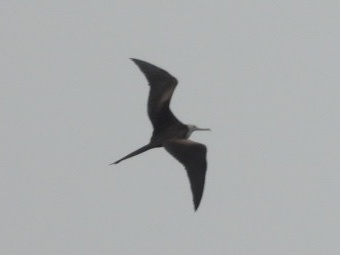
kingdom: Animalia
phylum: Chordata
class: Aves
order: Suliformes
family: Fregatidae
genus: Fregata
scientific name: Fregata magnificens
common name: Magnificent frigatebird
